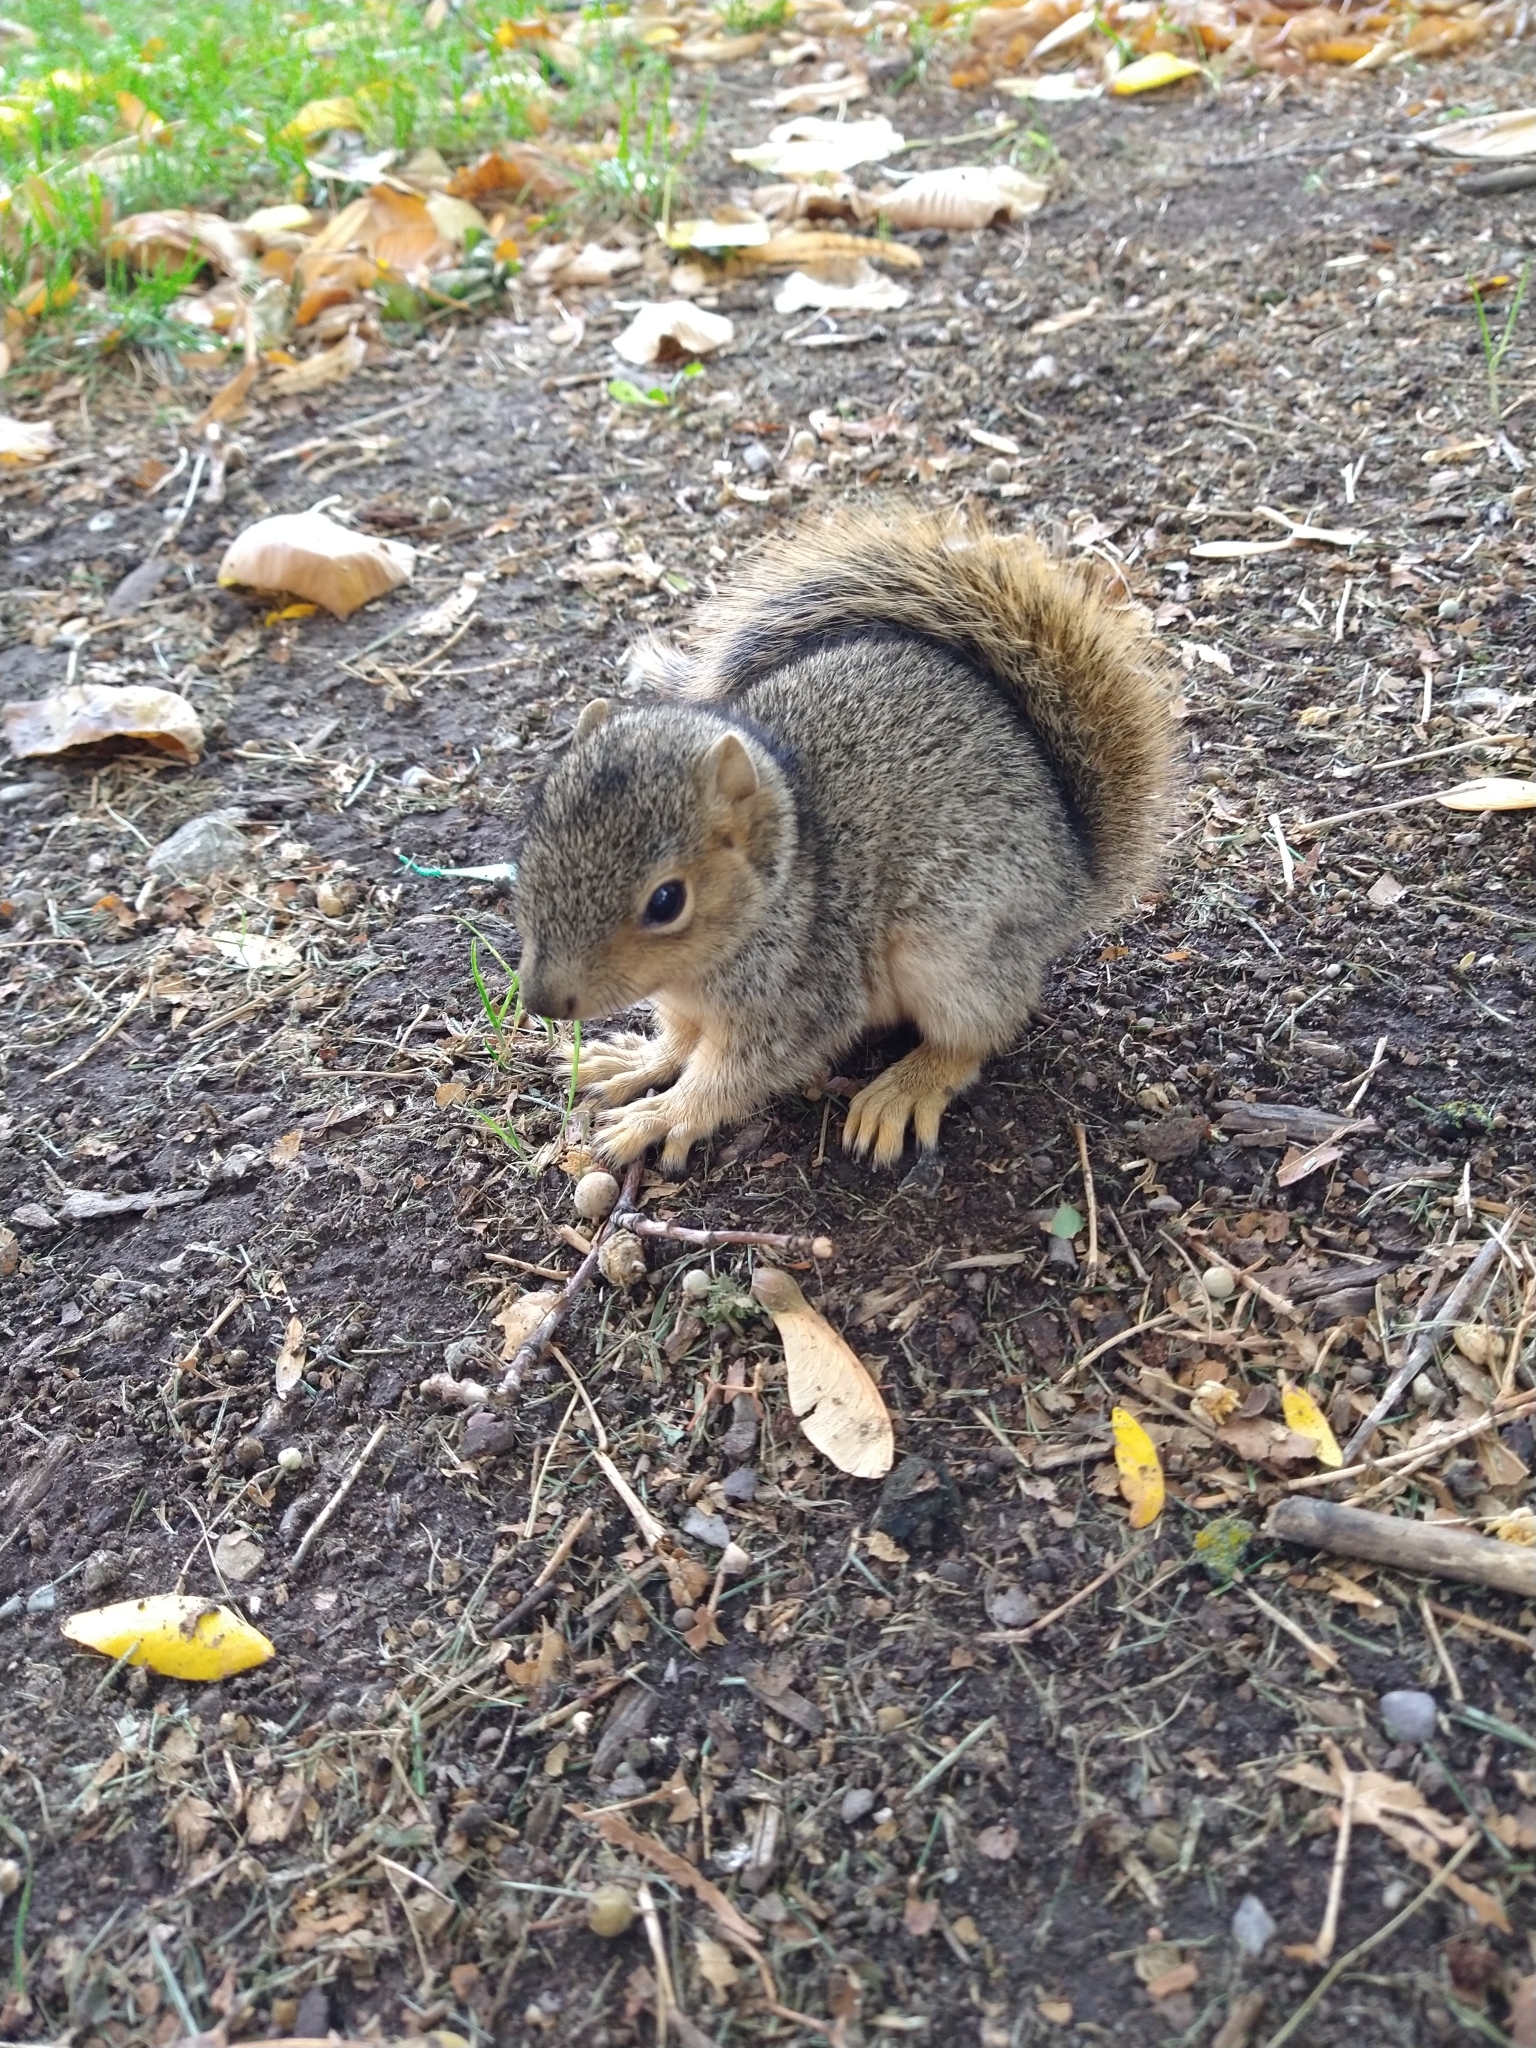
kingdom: Animalia
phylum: Chordata
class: Mammalia
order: Rodentia
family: Sciuridae
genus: Sciurus
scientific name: Sciurus niger
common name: Fox squirrel
